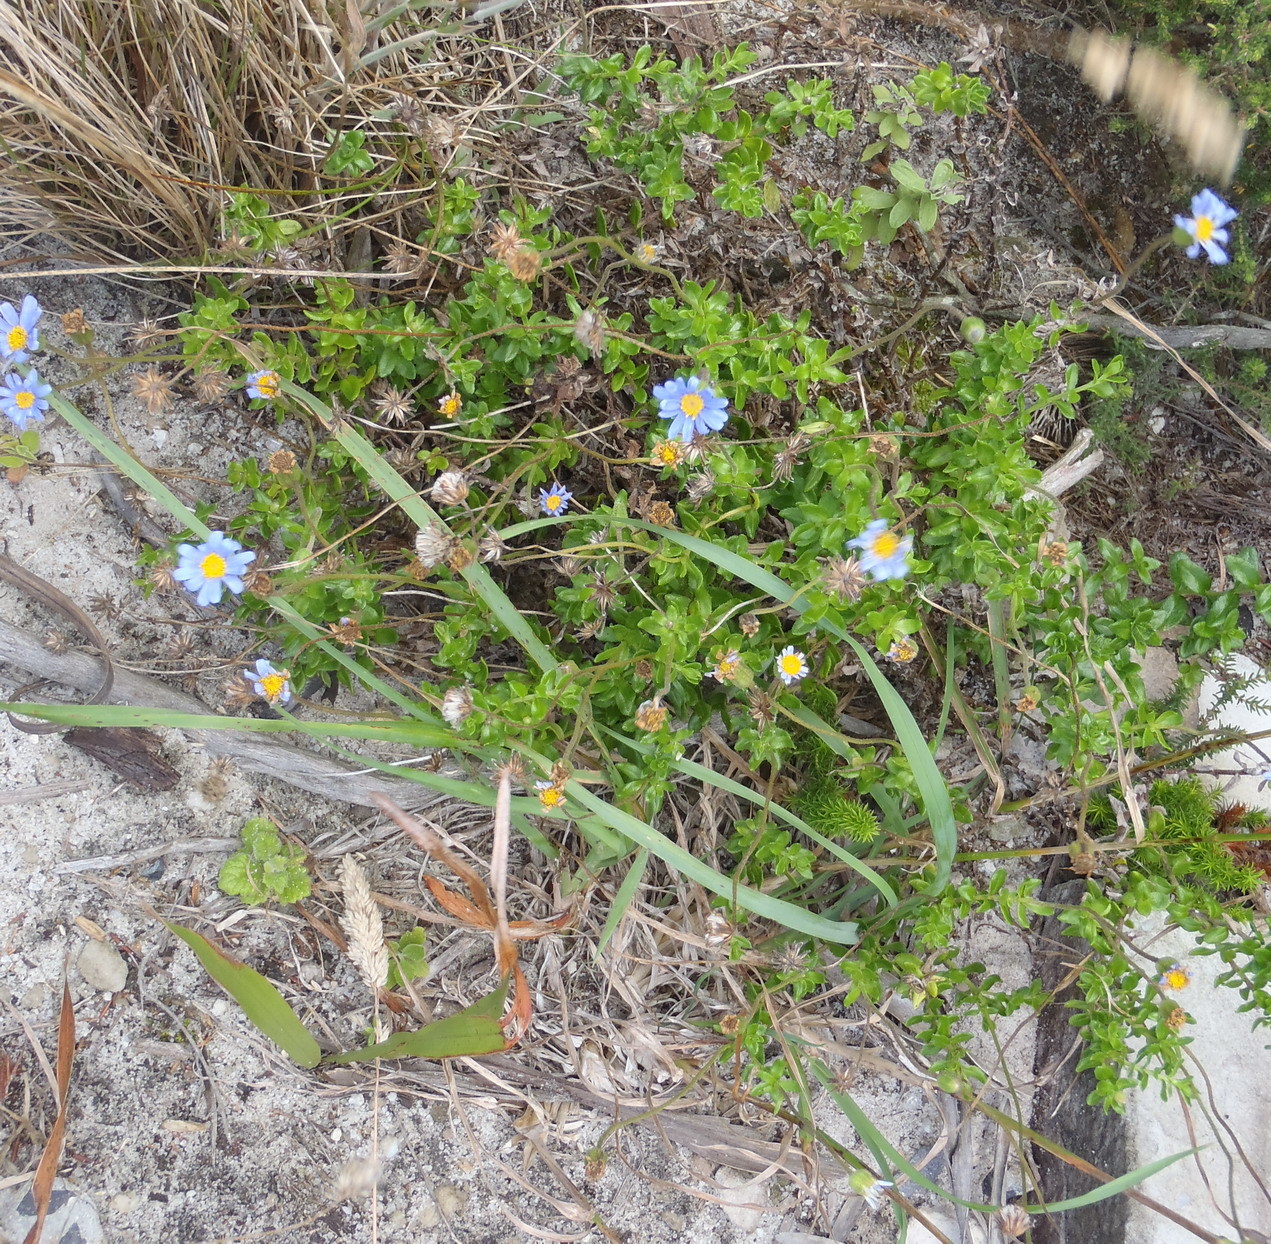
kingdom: Plantae
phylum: Tracheophyta
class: Magnoliopsida
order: Asterales
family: Asteraceae
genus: Felicia
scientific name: Felicia aethiopica
